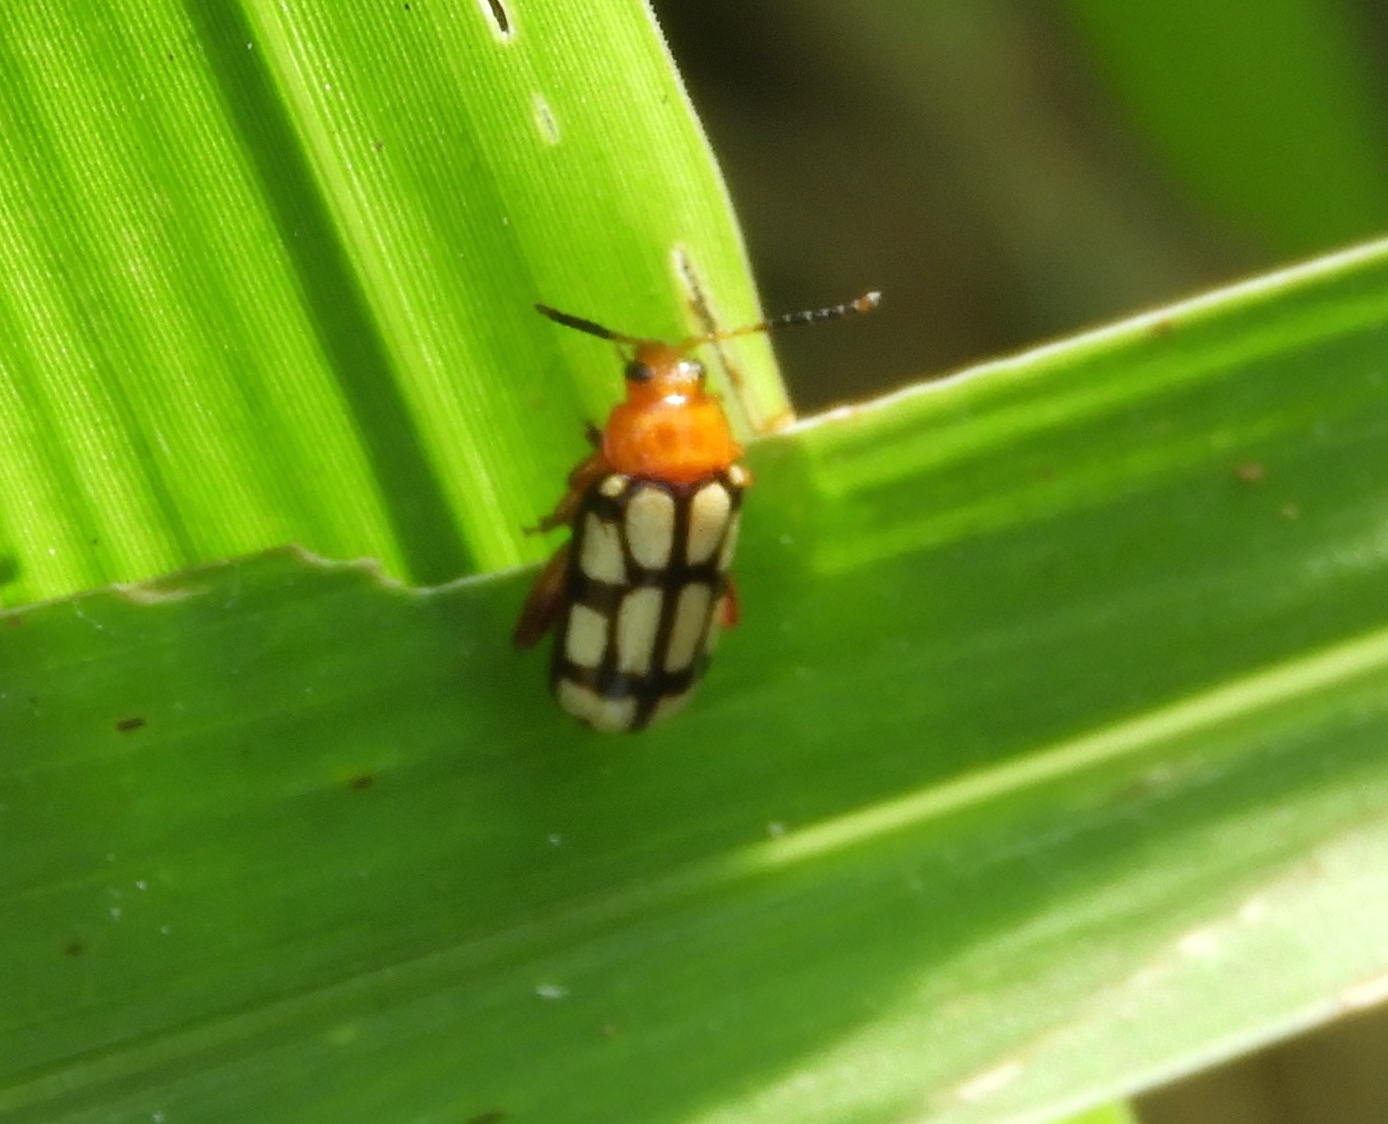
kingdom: Animalia
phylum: Arthropoda
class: Insecta
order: Coleoptera
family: Chrysomelidae
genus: Disonycha
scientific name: Disonycha
